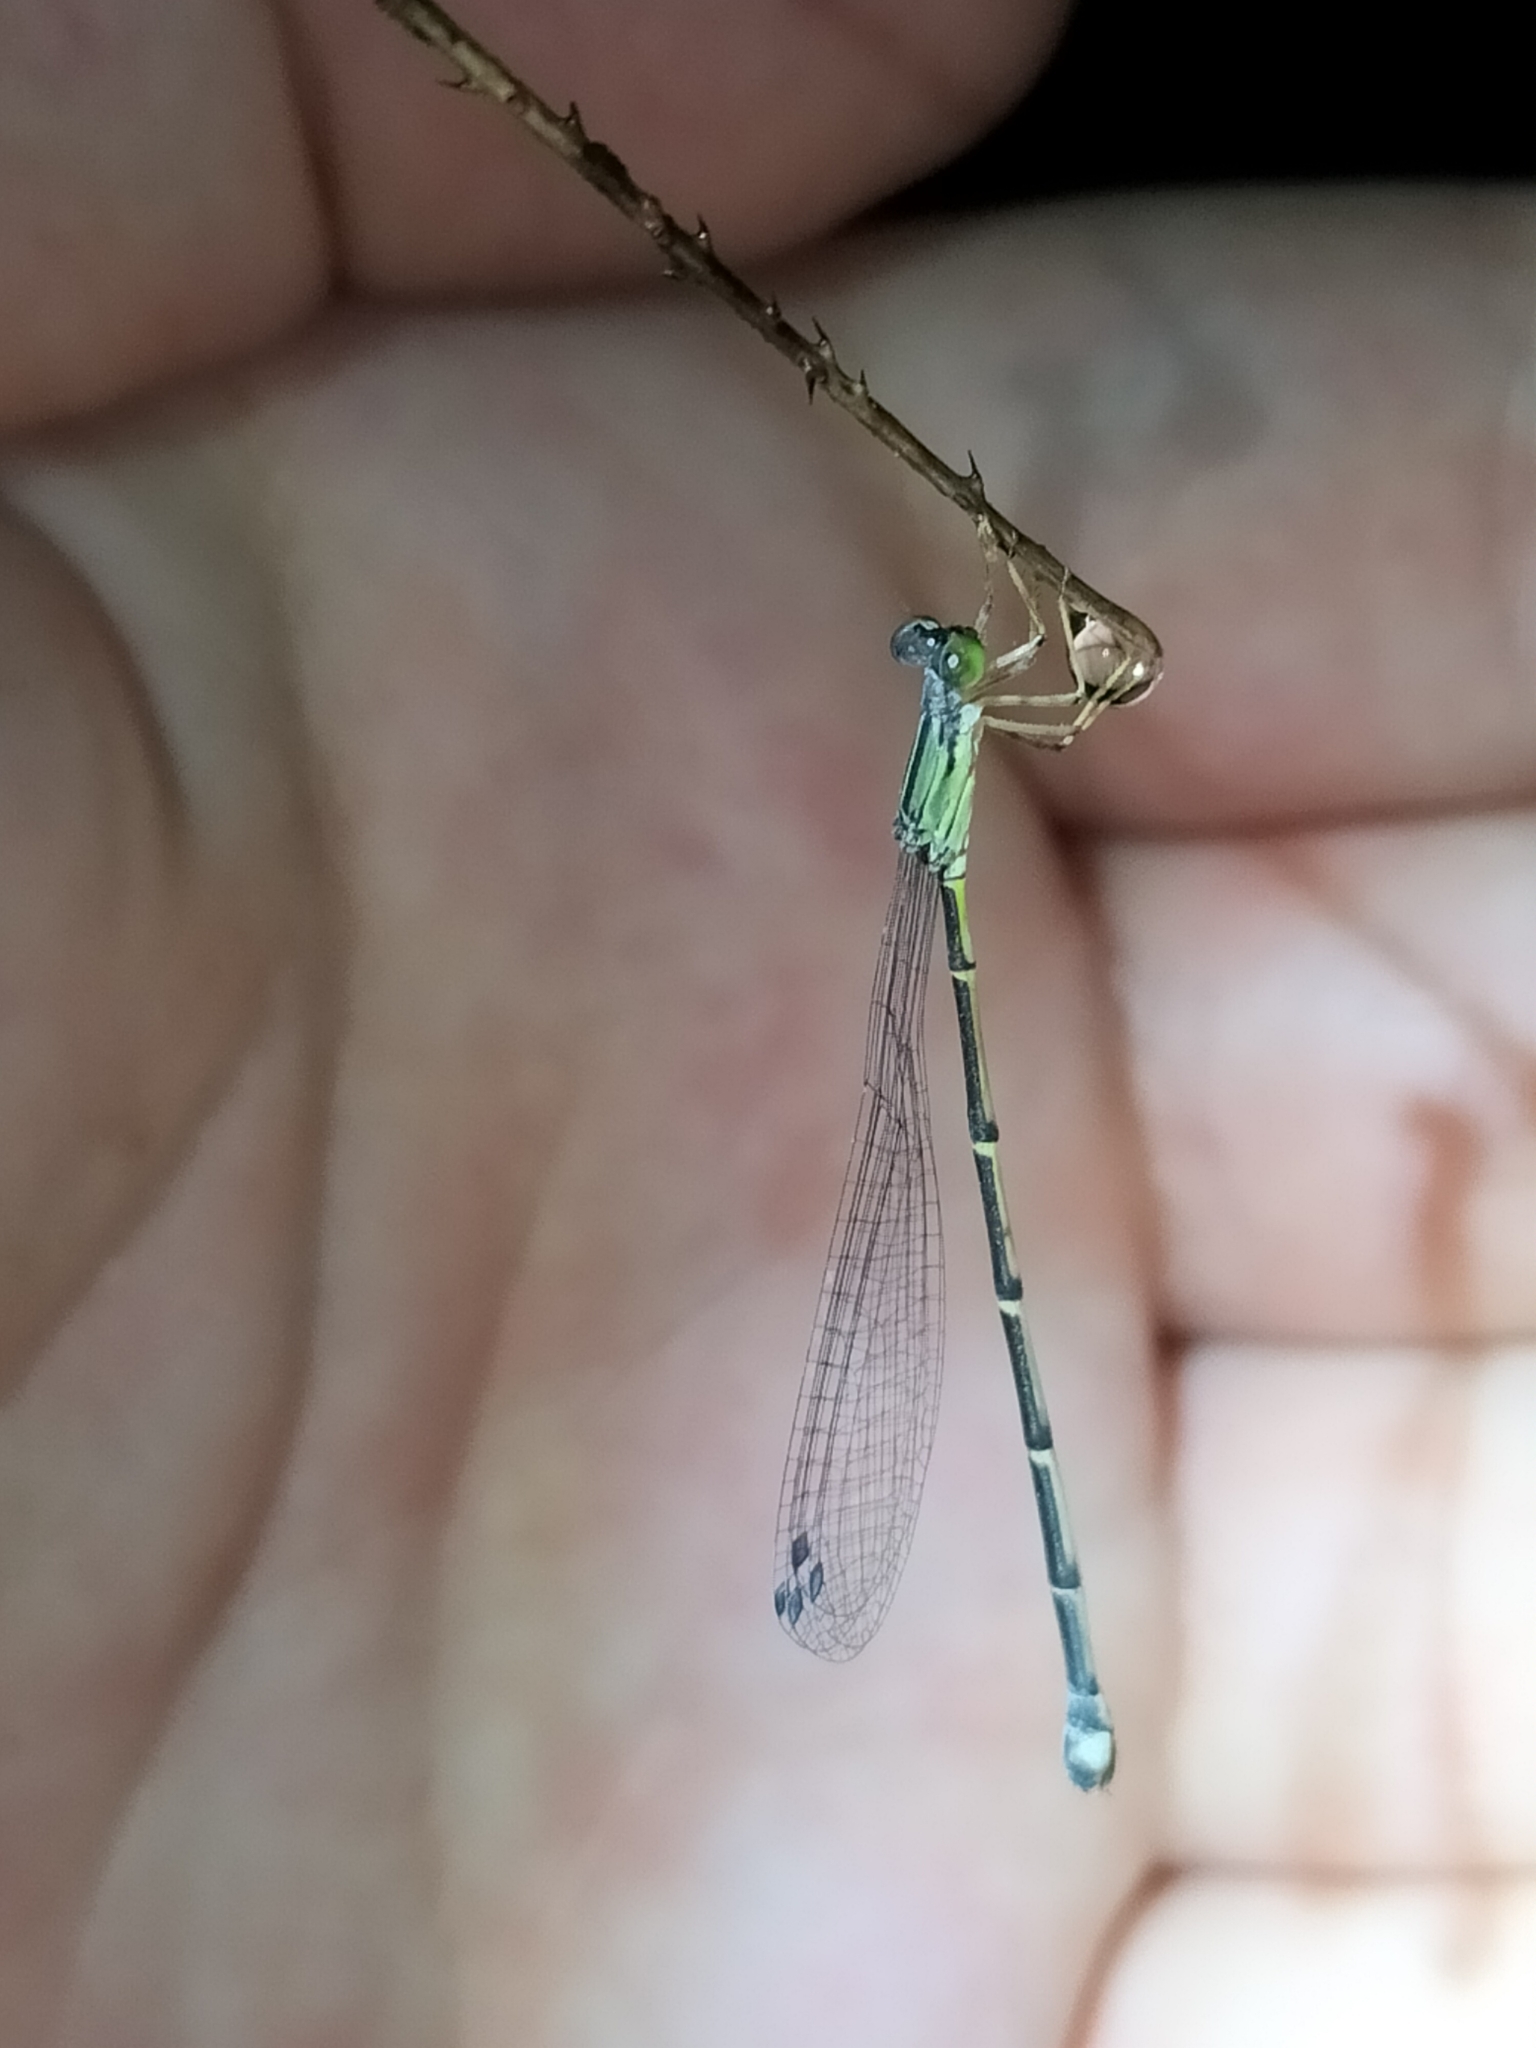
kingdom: Animalia
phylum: Arthropoda
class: Insecta
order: Odonata
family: Isostictidae
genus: Oristicta
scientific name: Oristicta filicicola
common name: Slender wiretail
